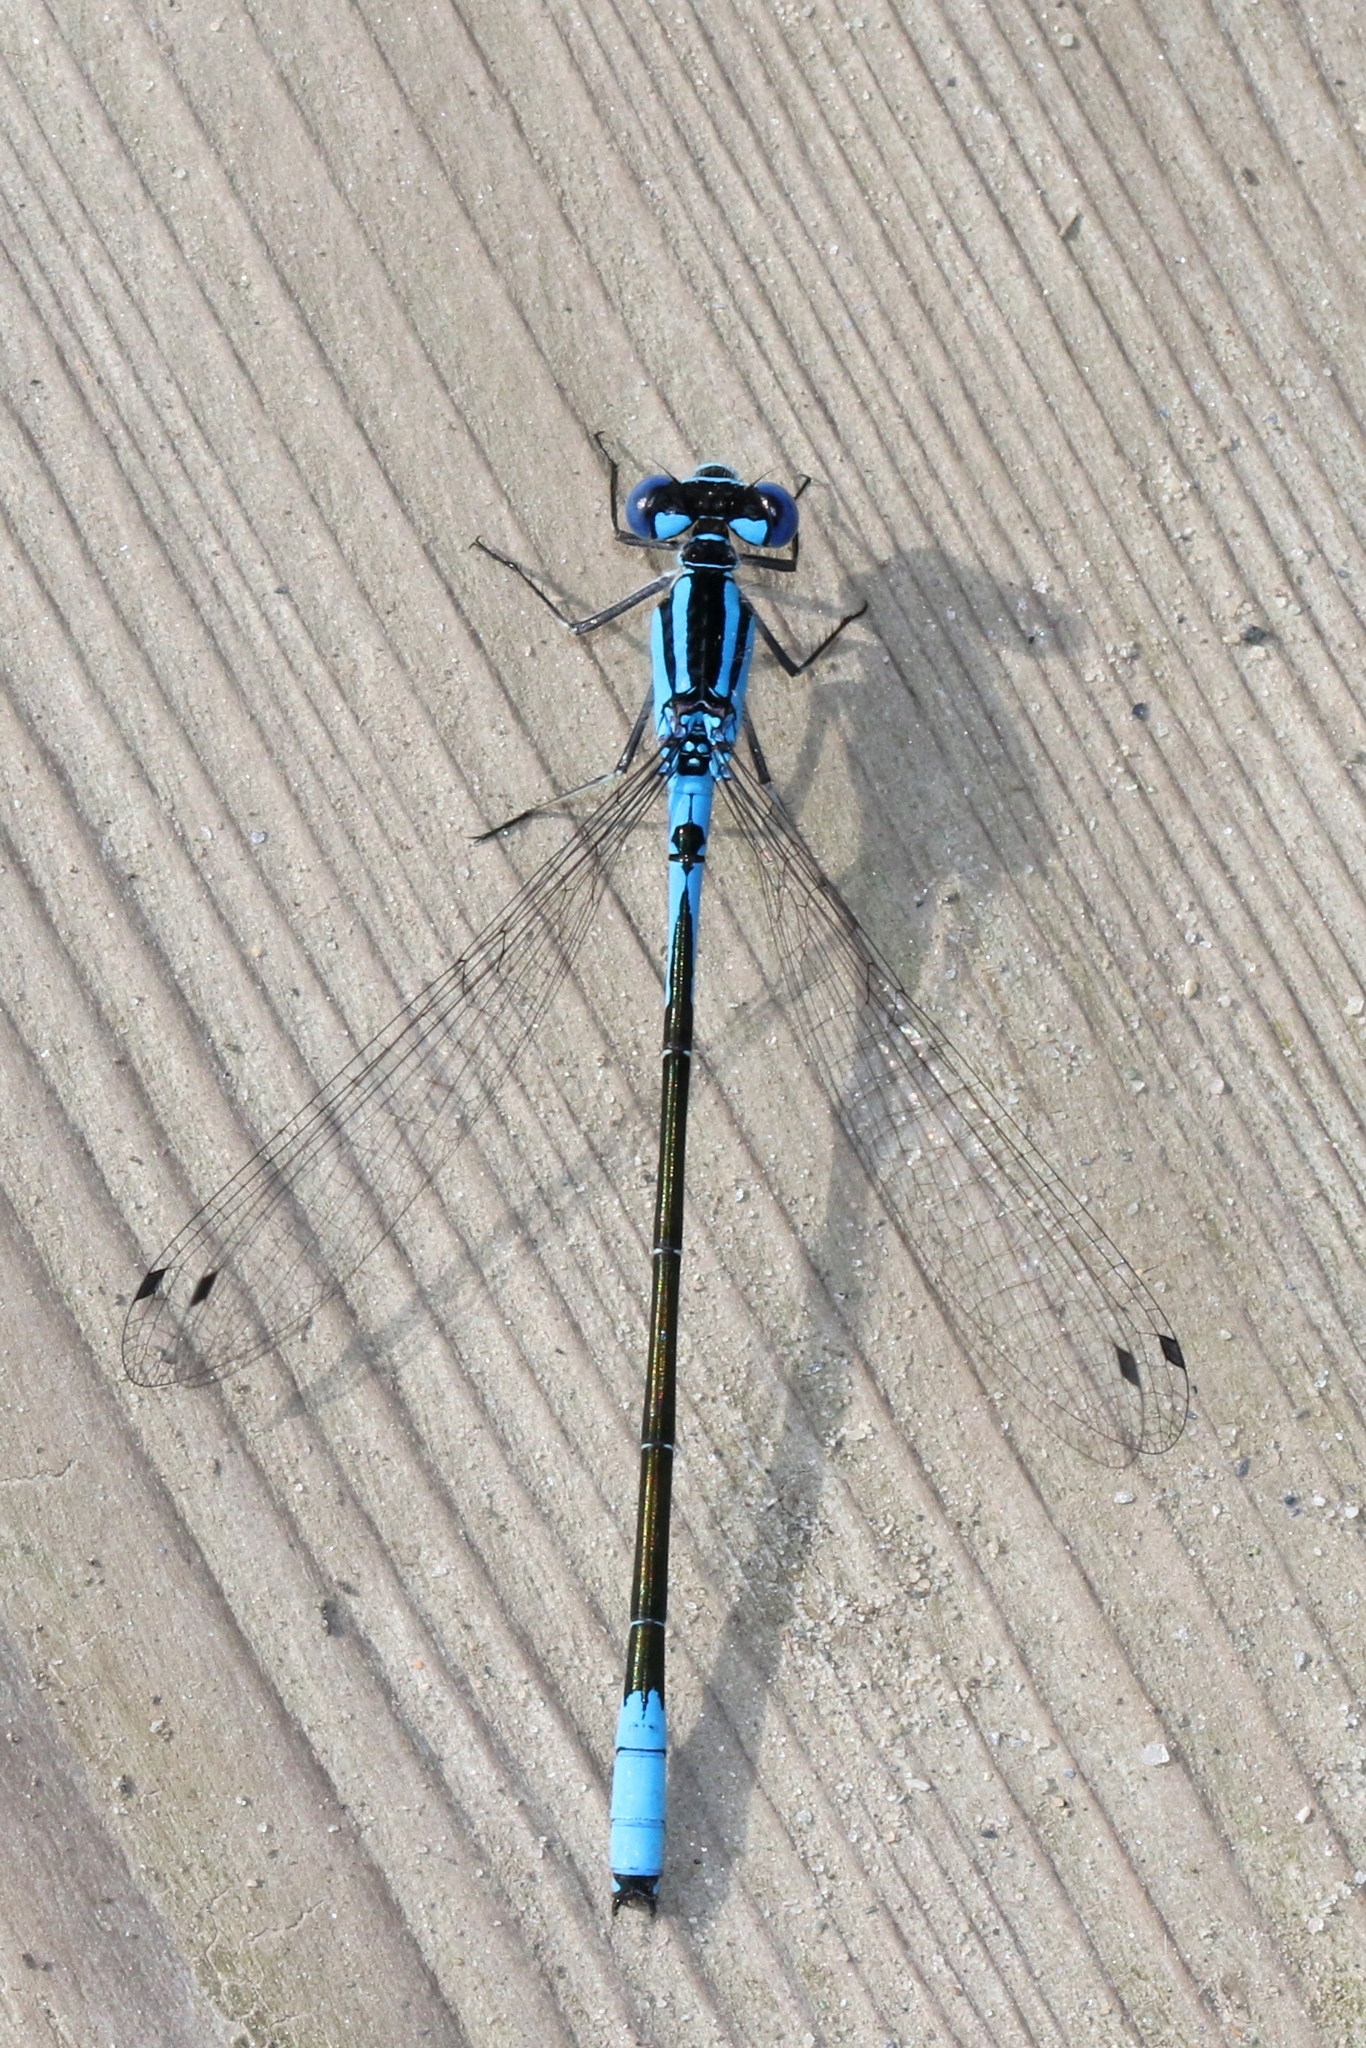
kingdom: Animalia
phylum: Arthropoda
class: Insecta
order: Odonata
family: Coenagrionidae
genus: Enallagma
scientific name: Enallagma aspersum
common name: Azure bluet
